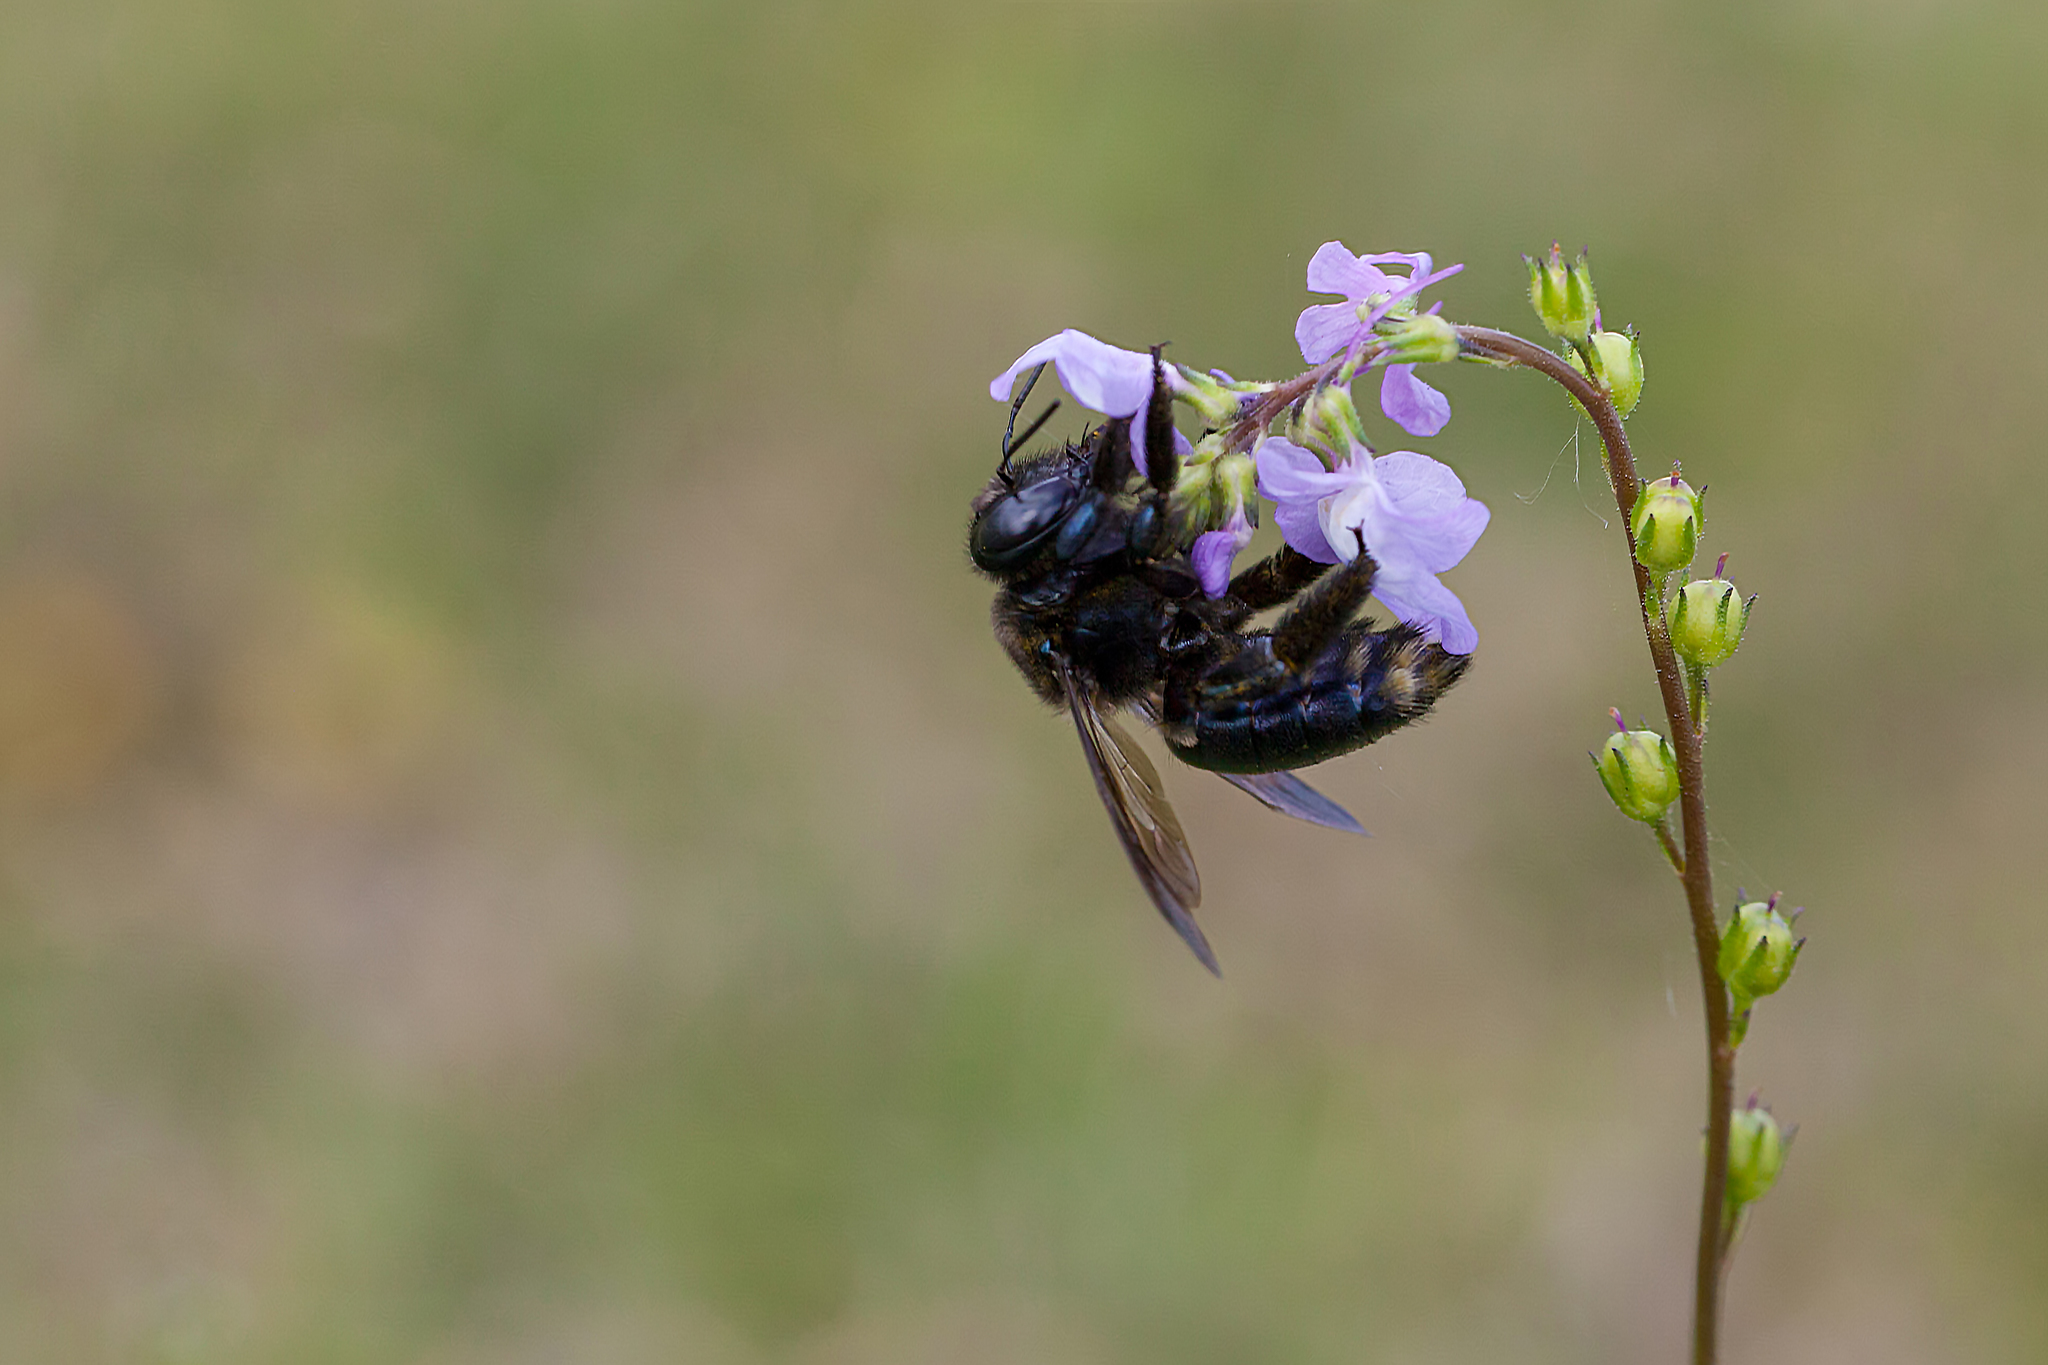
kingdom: Animalia
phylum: Arthropoda
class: Insecta
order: Hymenoptera
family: Apidae
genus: Xylocopa
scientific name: Xylocopa micans
